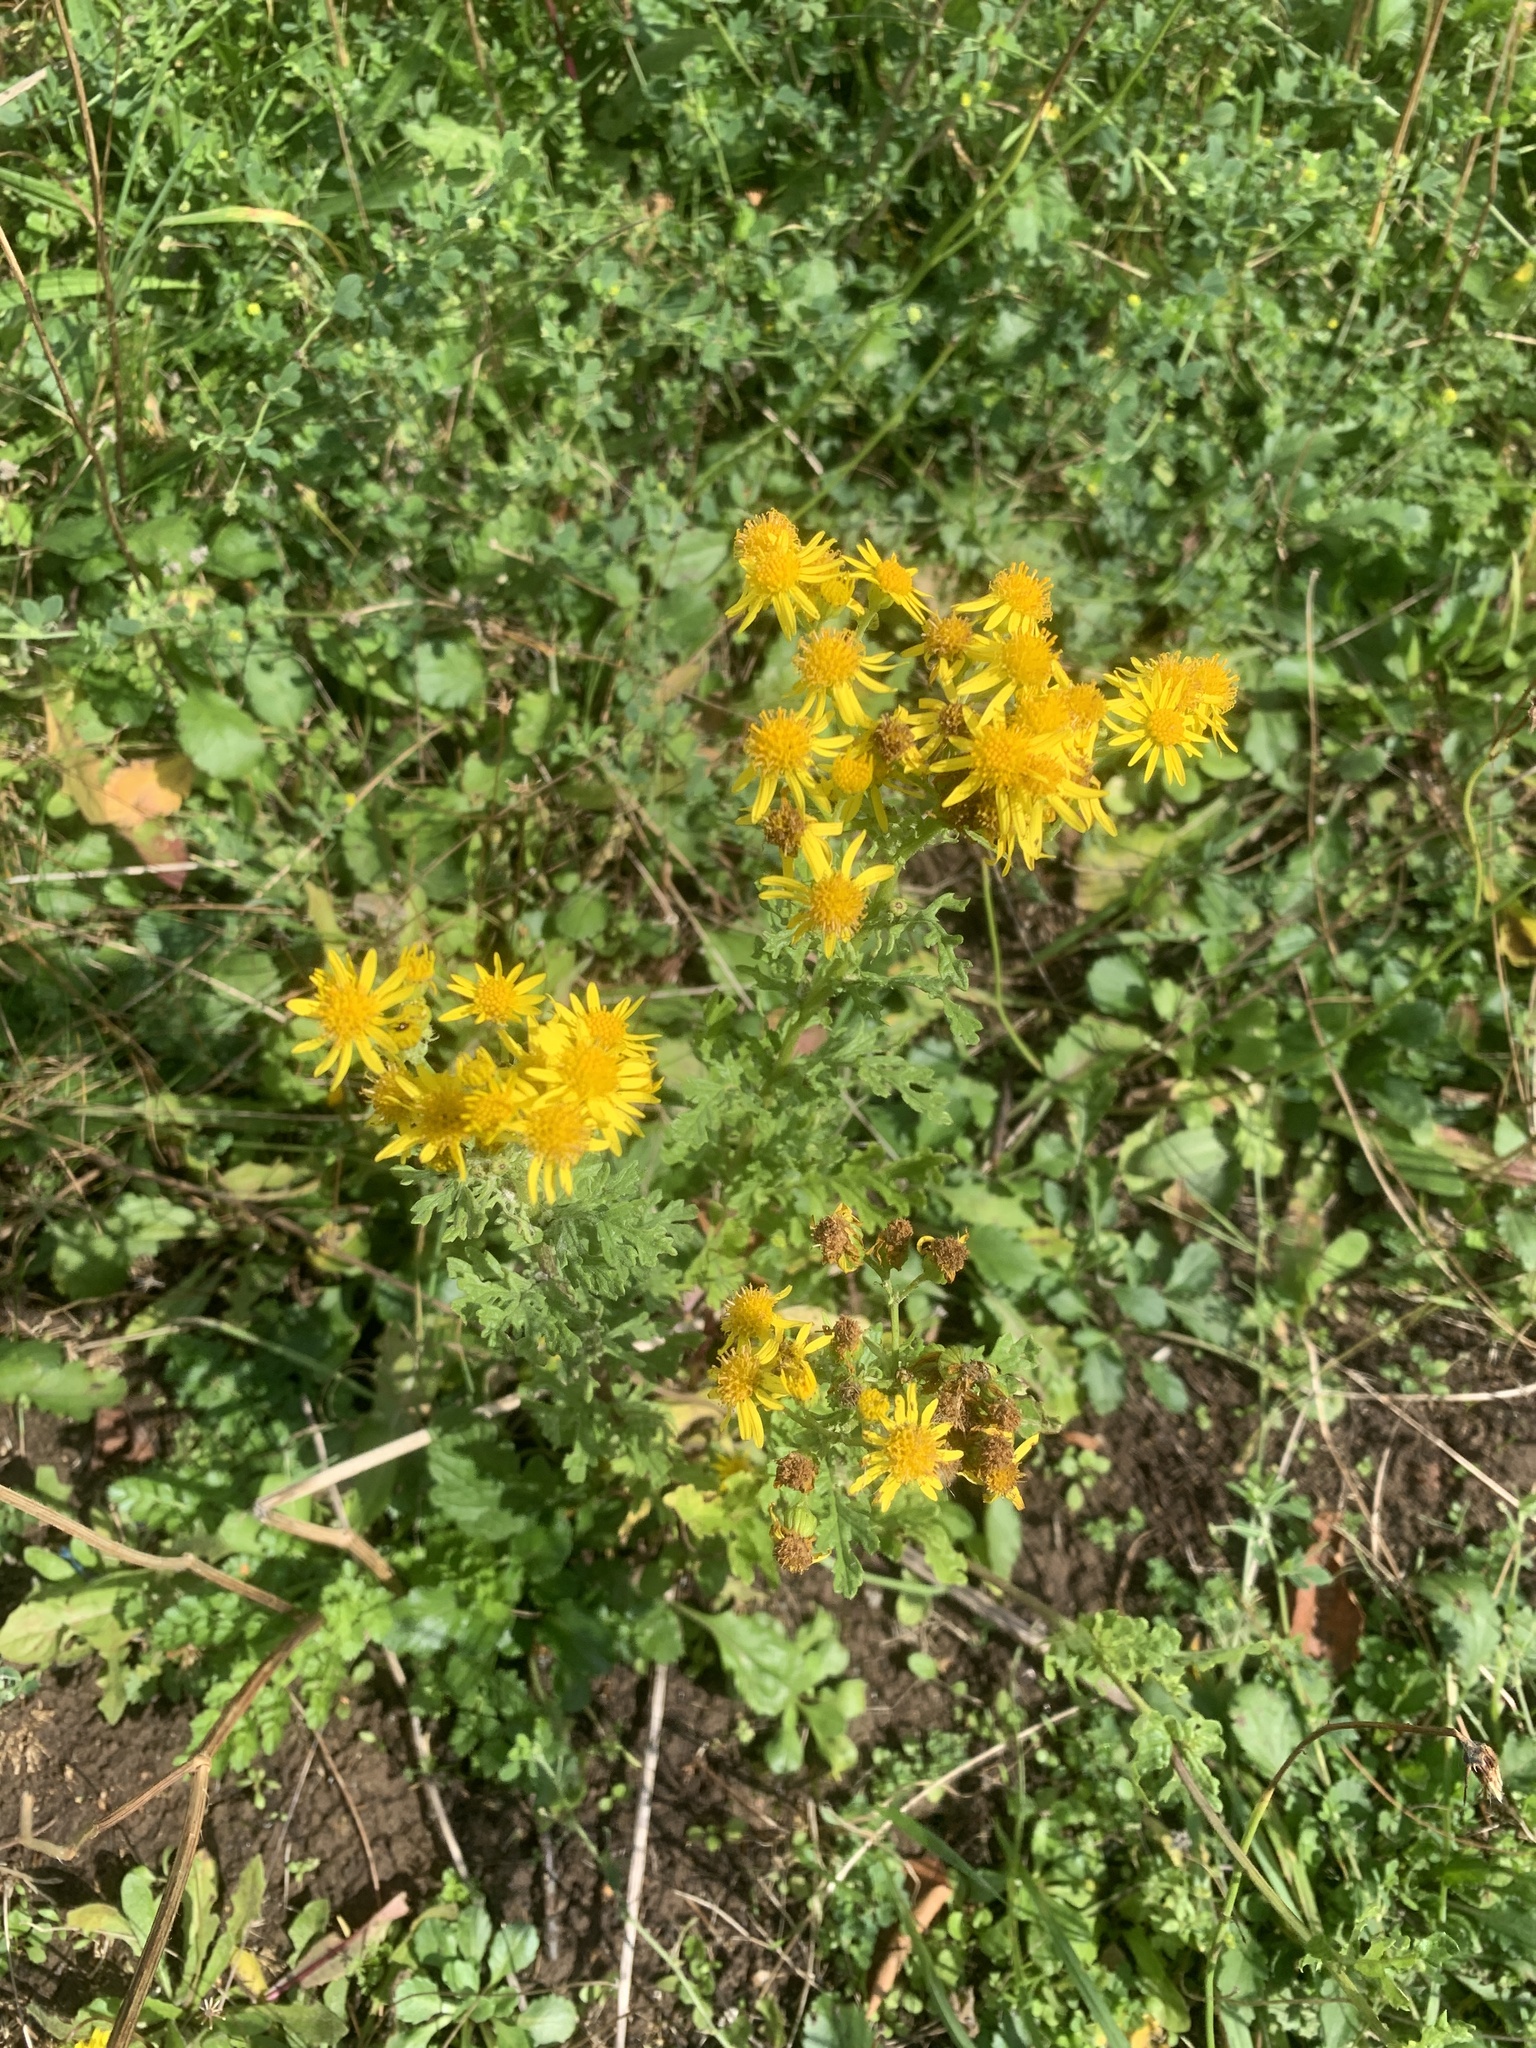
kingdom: Plantae
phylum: Tracheophyta
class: Magnoliopsida
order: Asterales
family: Asteraceae
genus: Jacobaea
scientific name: Jacobaea vulgaris
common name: Stinking willie
